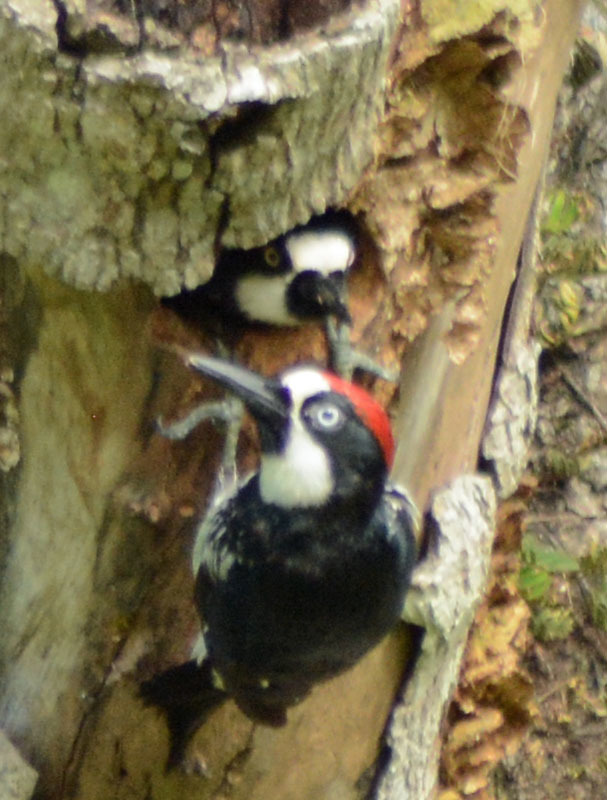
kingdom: Animalia
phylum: Chordata
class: Aves
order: Piciformes
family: Picidae
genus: Melanerpes
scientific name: Melanerpes formicivorus
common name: Acorn woodpecker
